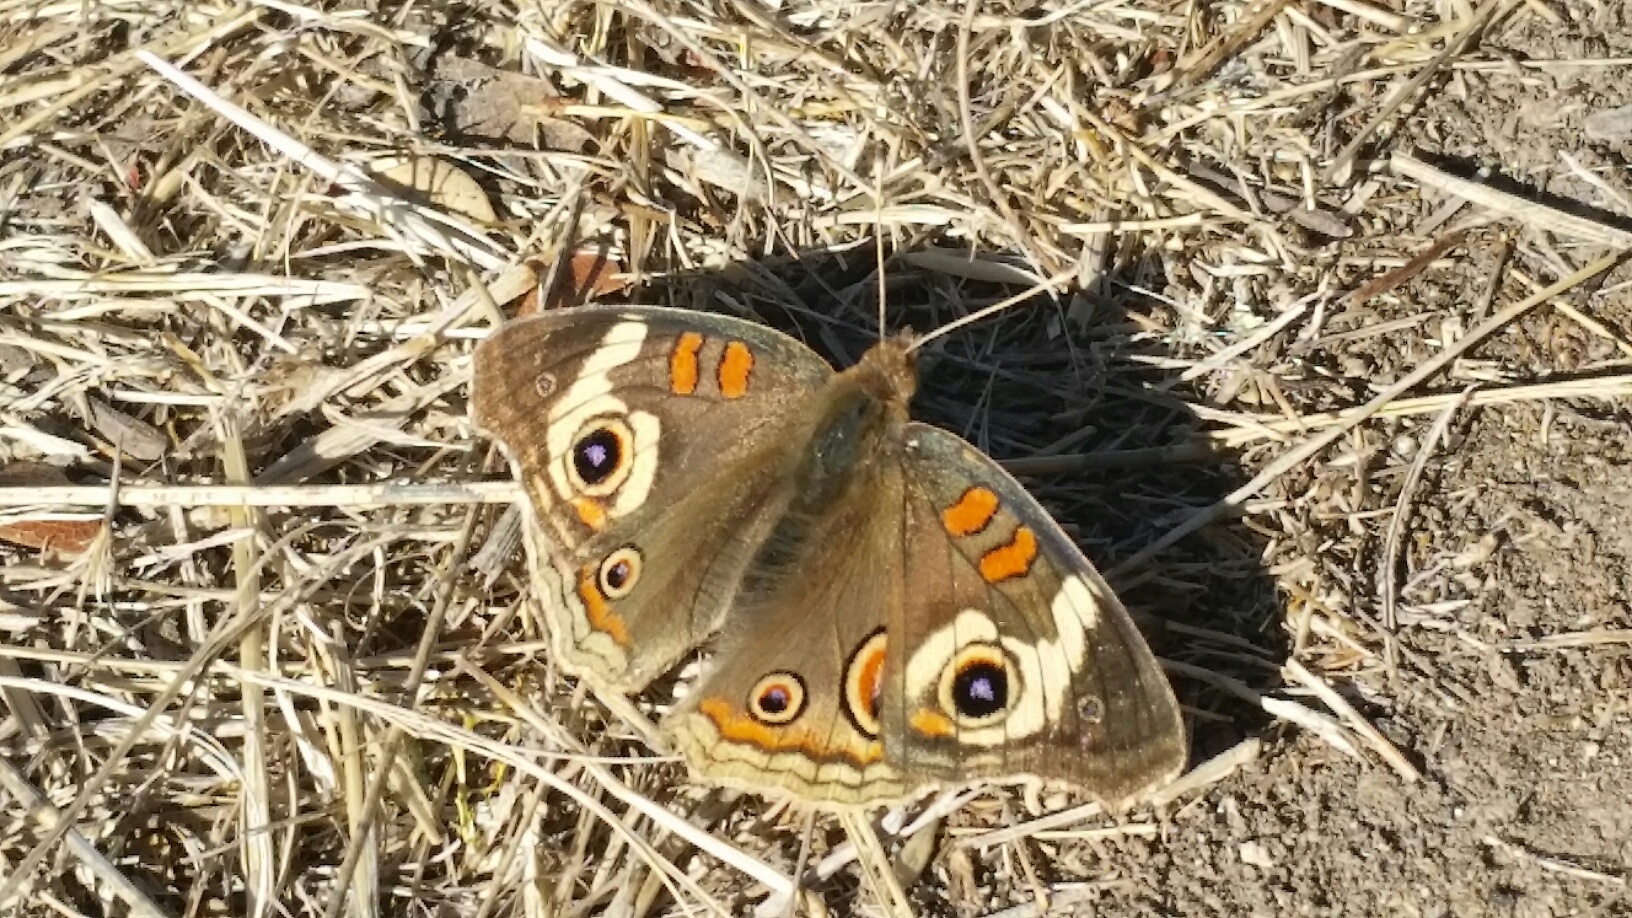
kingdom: Animalia
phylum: Arthropoda
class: Insecta
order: Lepidoptera
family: Nymphalidae
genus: Junonia
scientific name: Junonia grisea
